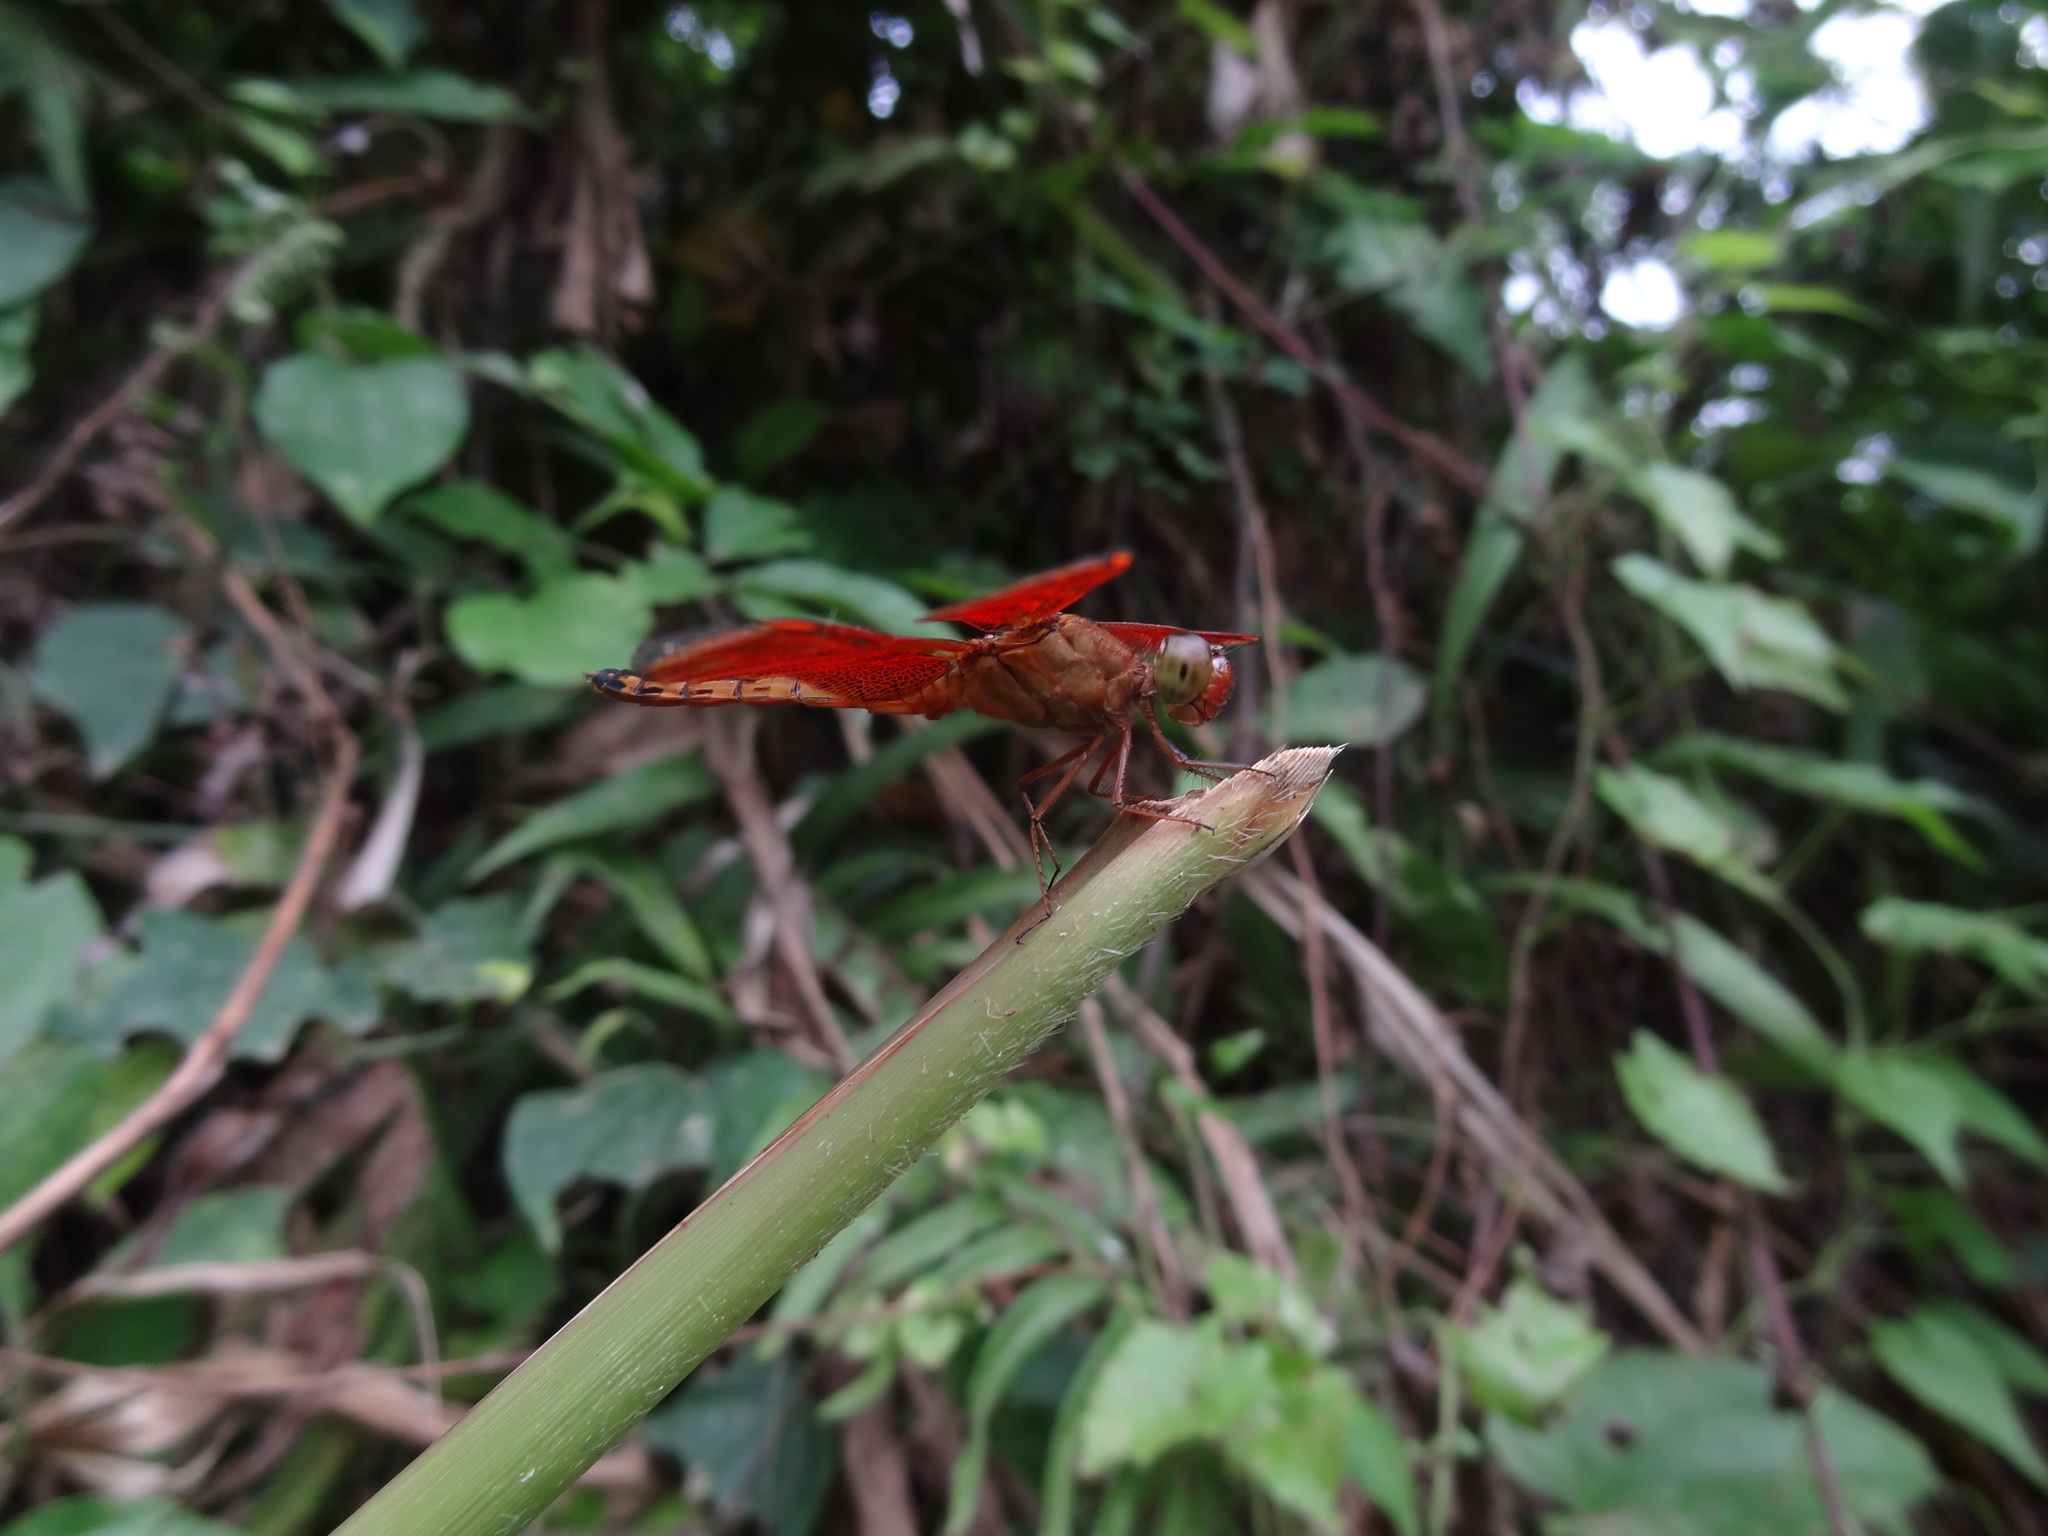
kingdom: Animalia
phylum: Arthropoda
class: Insecta
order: Odonata
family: Libellulidae
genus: Neurothemis
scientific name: Neurothemis terminata
